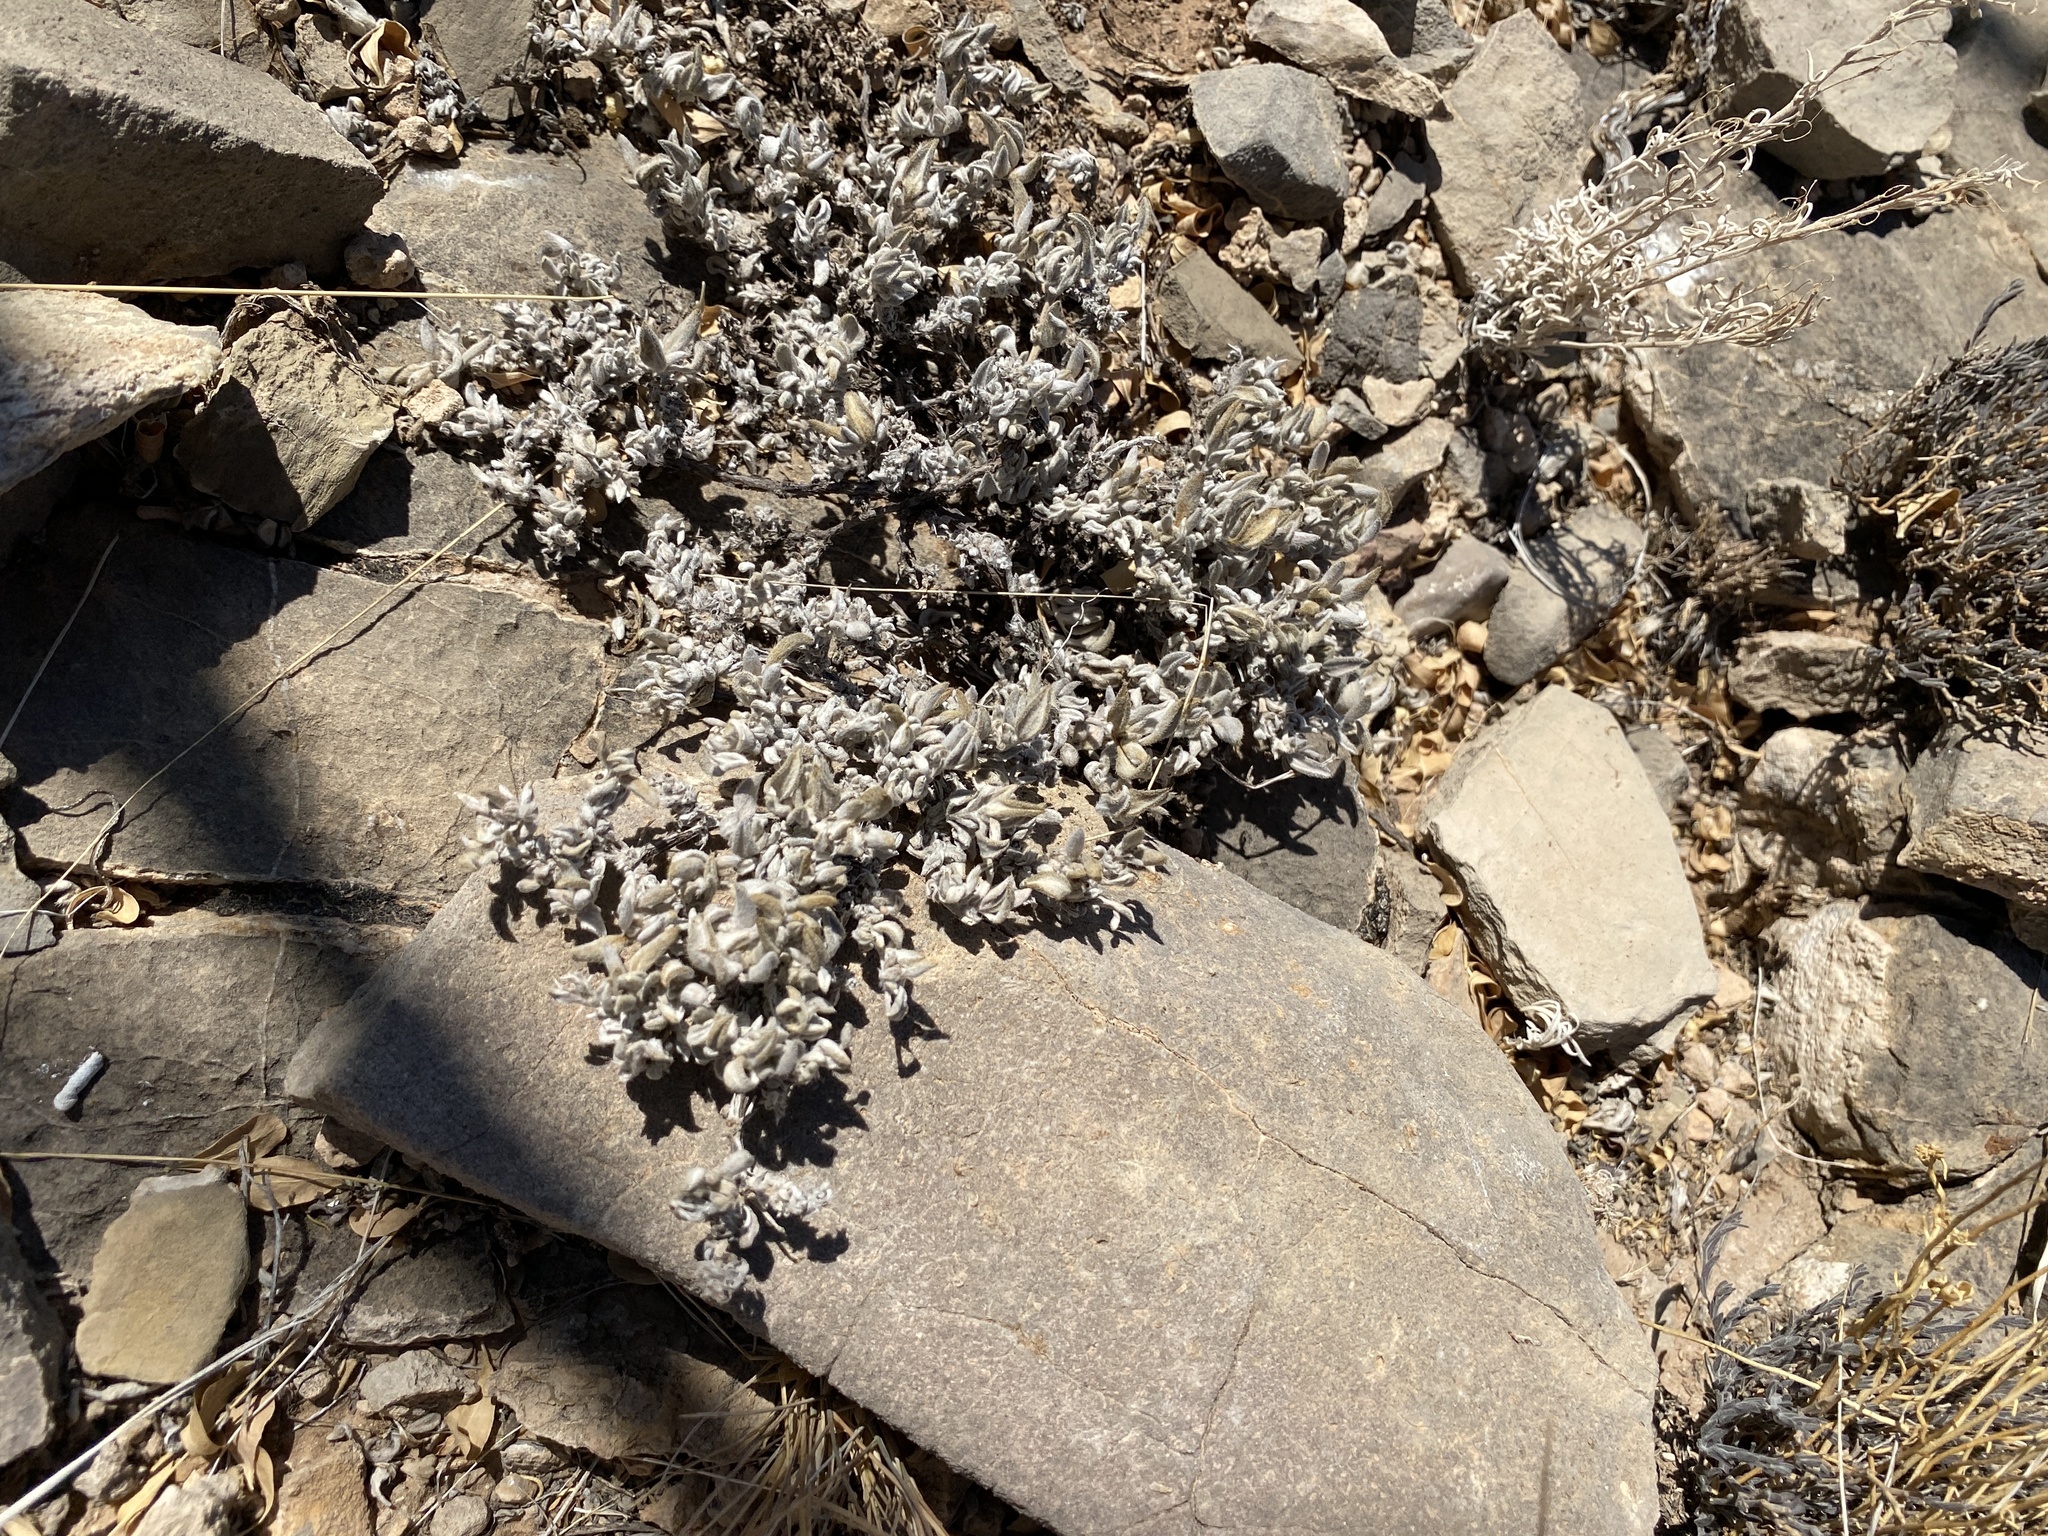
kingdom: Plantae
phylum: Tracheophyta
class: Magnoliopsida
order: Boraginales
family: Ehretiaceae
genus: Tiquilia
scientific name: Tiquilia canescens
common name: Hairy tiquilia
